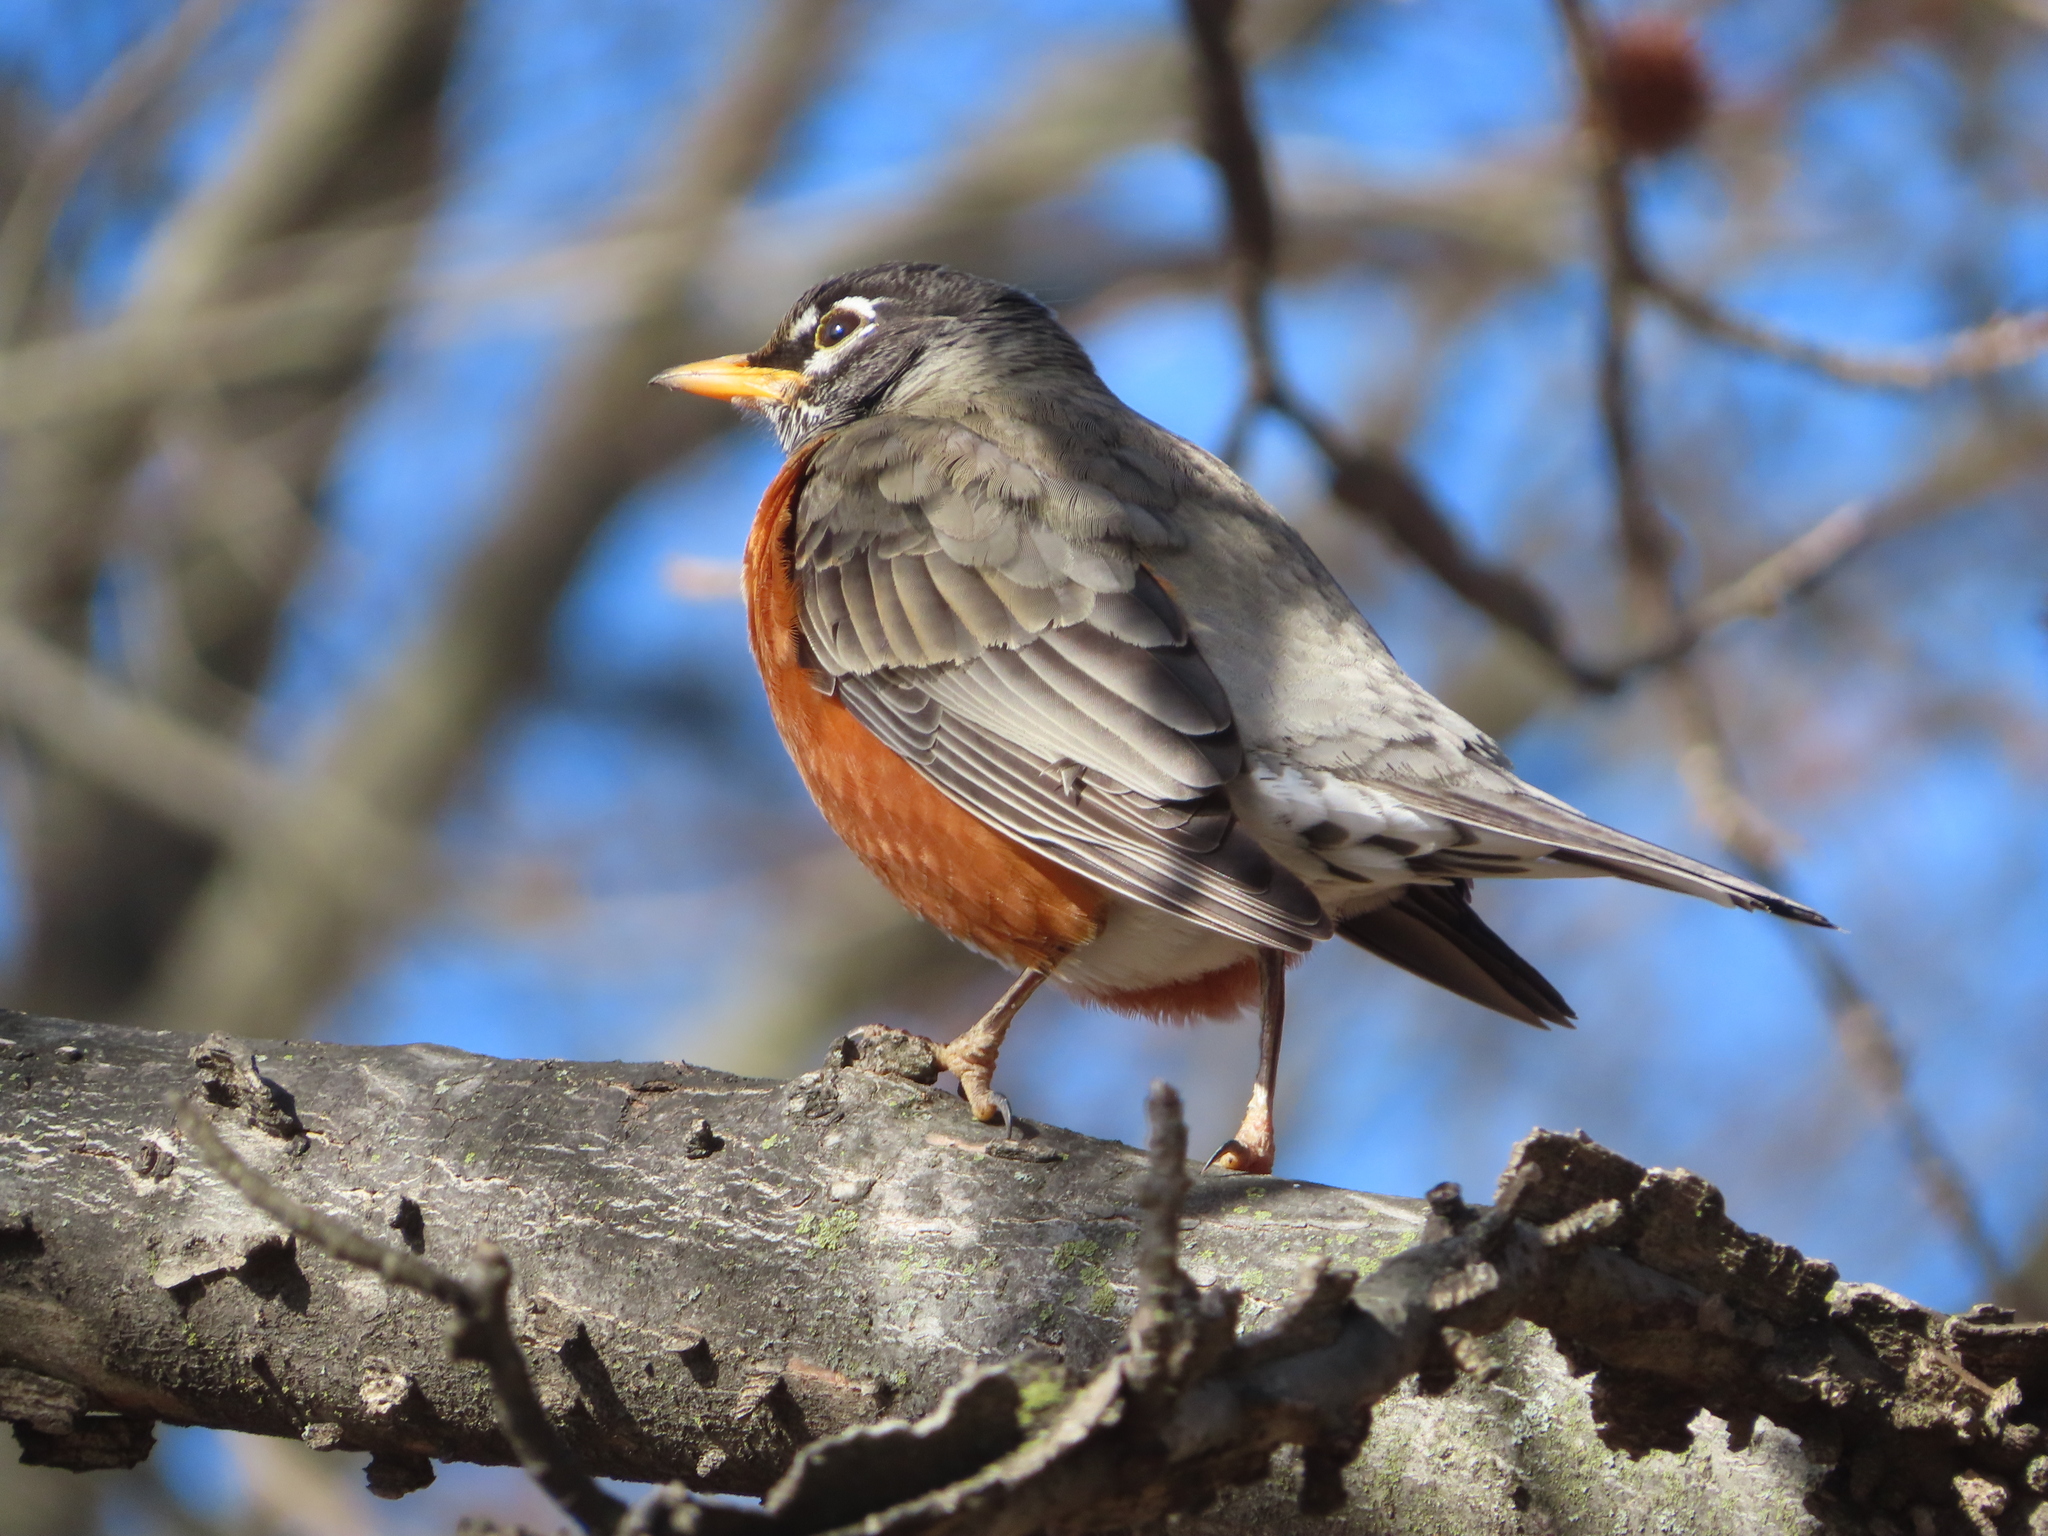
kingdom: Animalia
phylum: Chordata
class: Aves
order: Passeriformes
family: Turdidae
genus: Turdus
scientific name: Turdus migratorius
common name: American robin
